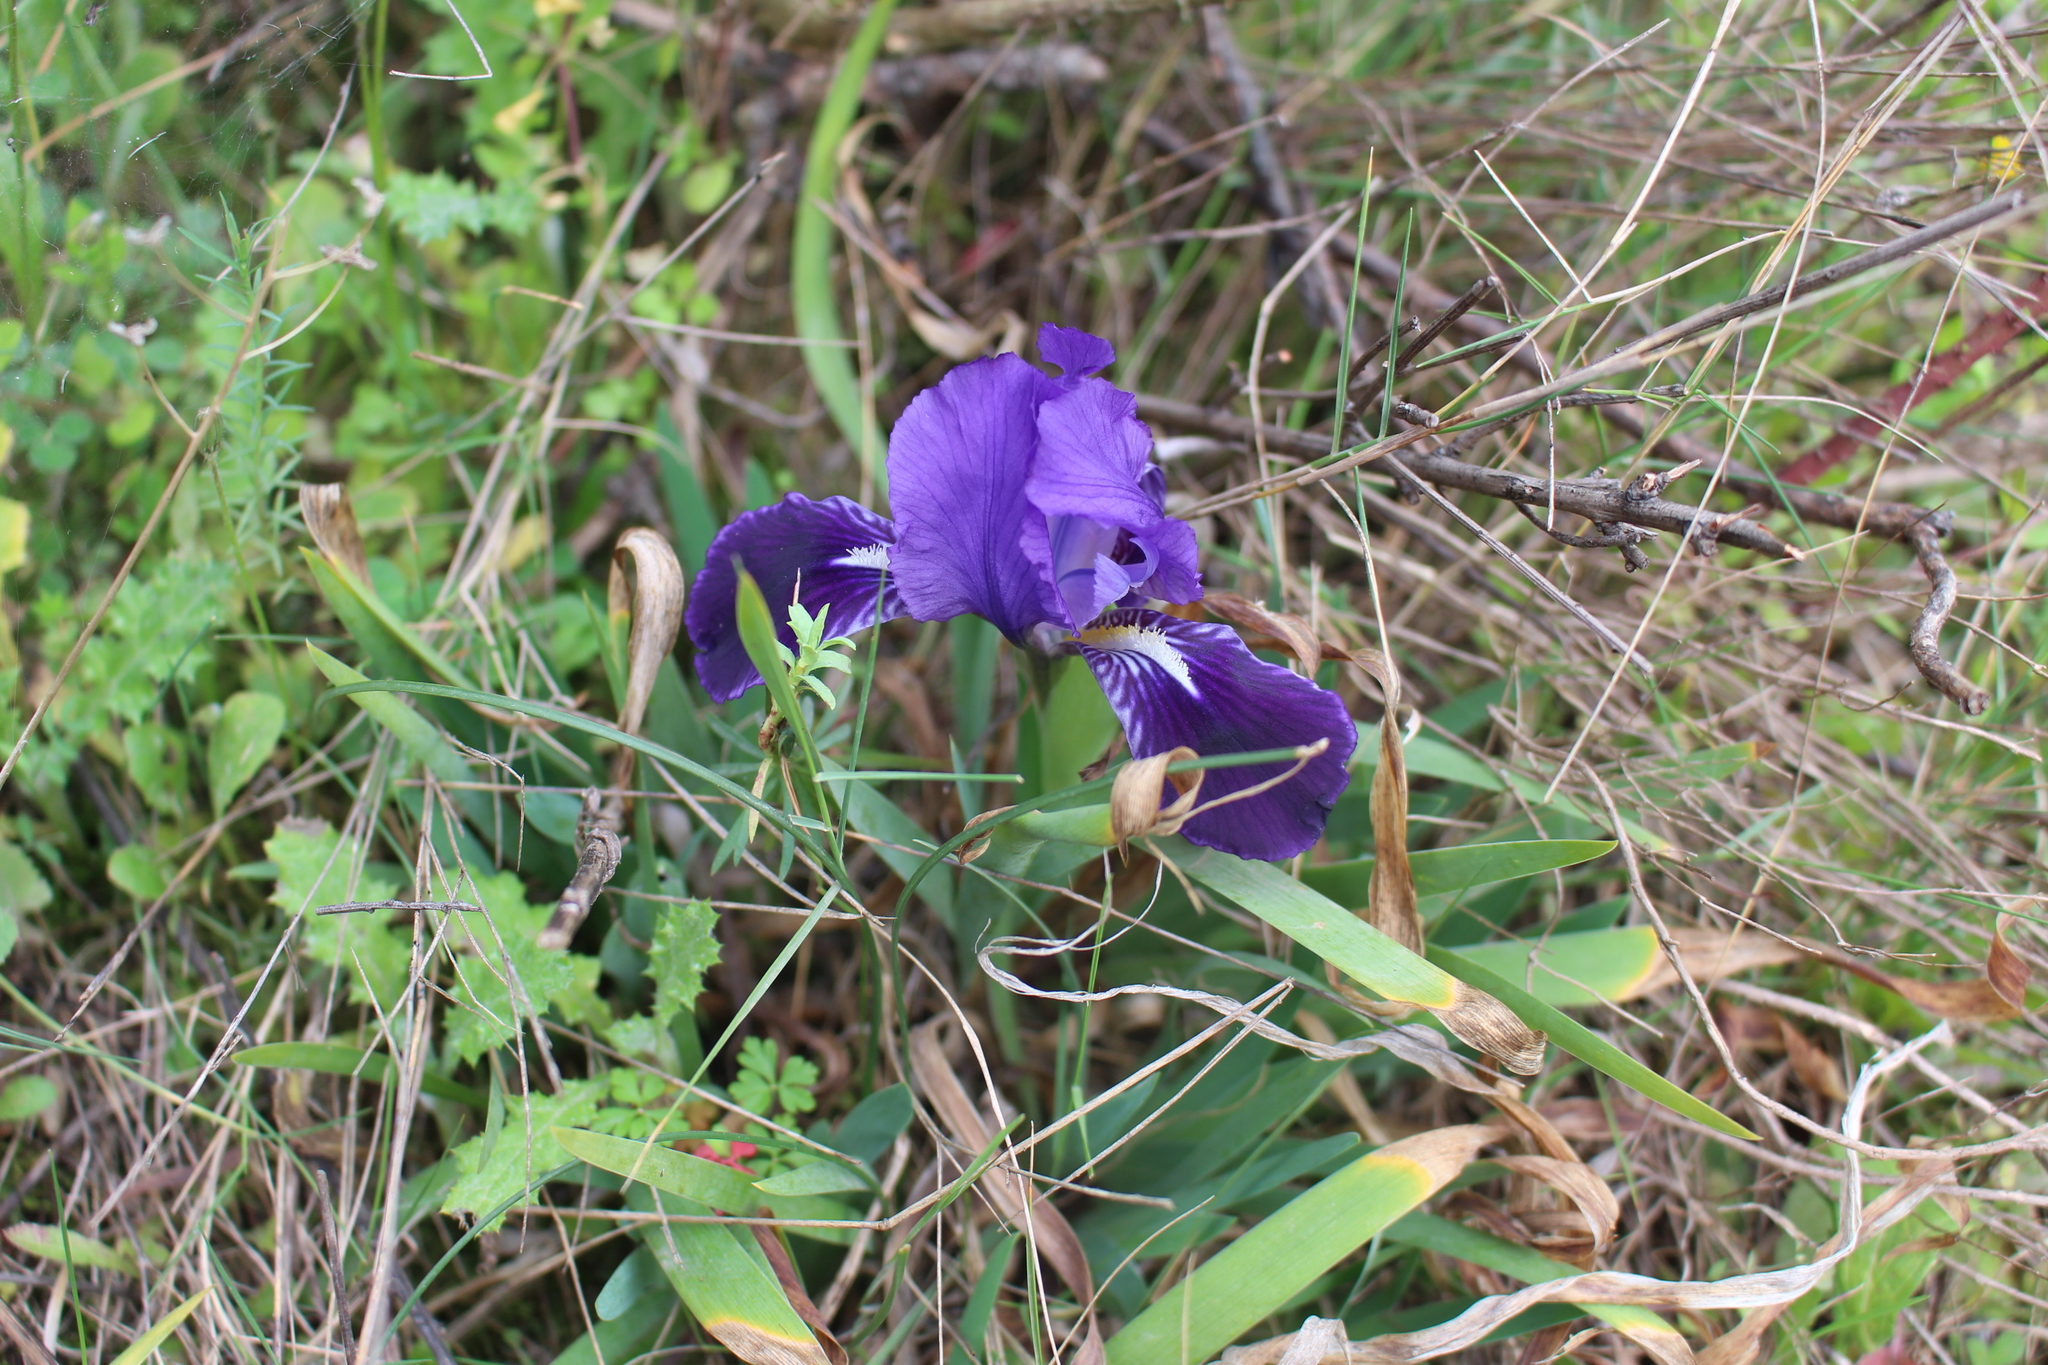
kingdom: Plantae
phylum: Tracheophyta
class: Liliopsida
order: Asparagales
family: Iridaceae
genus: Iris
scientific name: Iris lutescens
